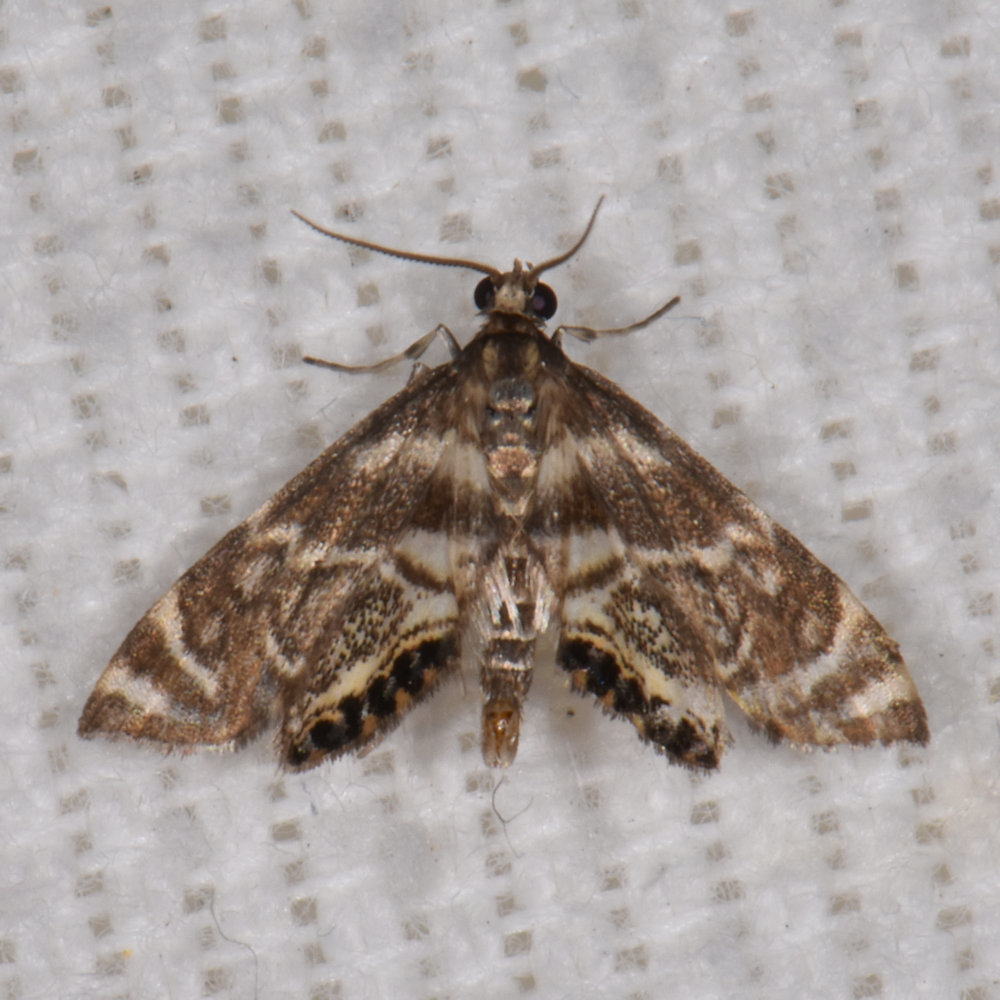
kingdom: Animalia
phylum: Arthropoda
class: Insecta
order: Lepidoptera
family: Crambidae
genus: Petrophila
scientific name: Petrophila canadensis
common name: Canadian petrophila
